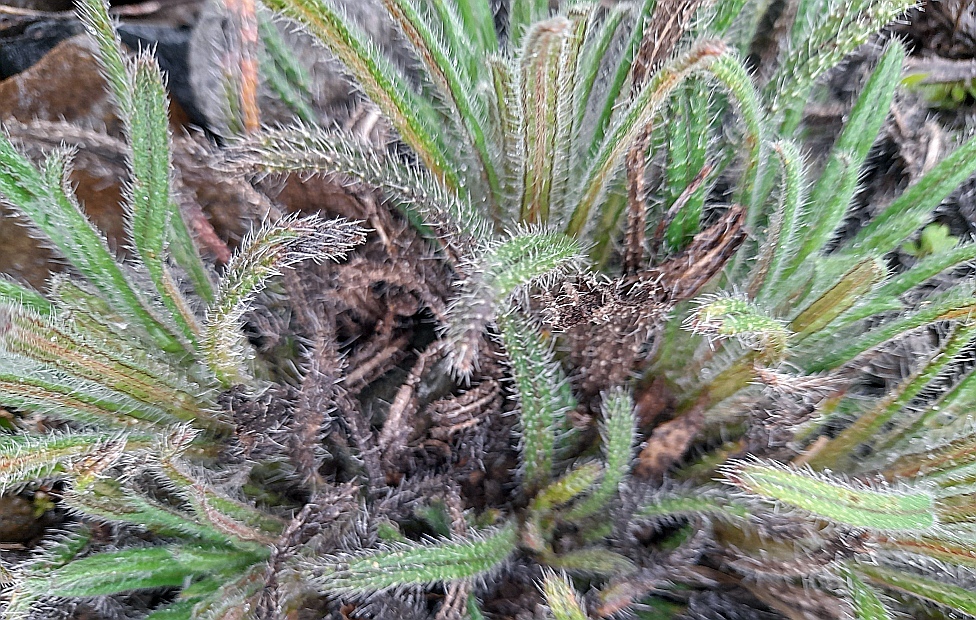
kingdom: Plantae
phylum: Tracheophyta
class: Magnoliopsida
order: Boraginales
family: Boraginaceae
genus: Echium
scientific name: Echium vulgare
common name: Common viper's bugloss
